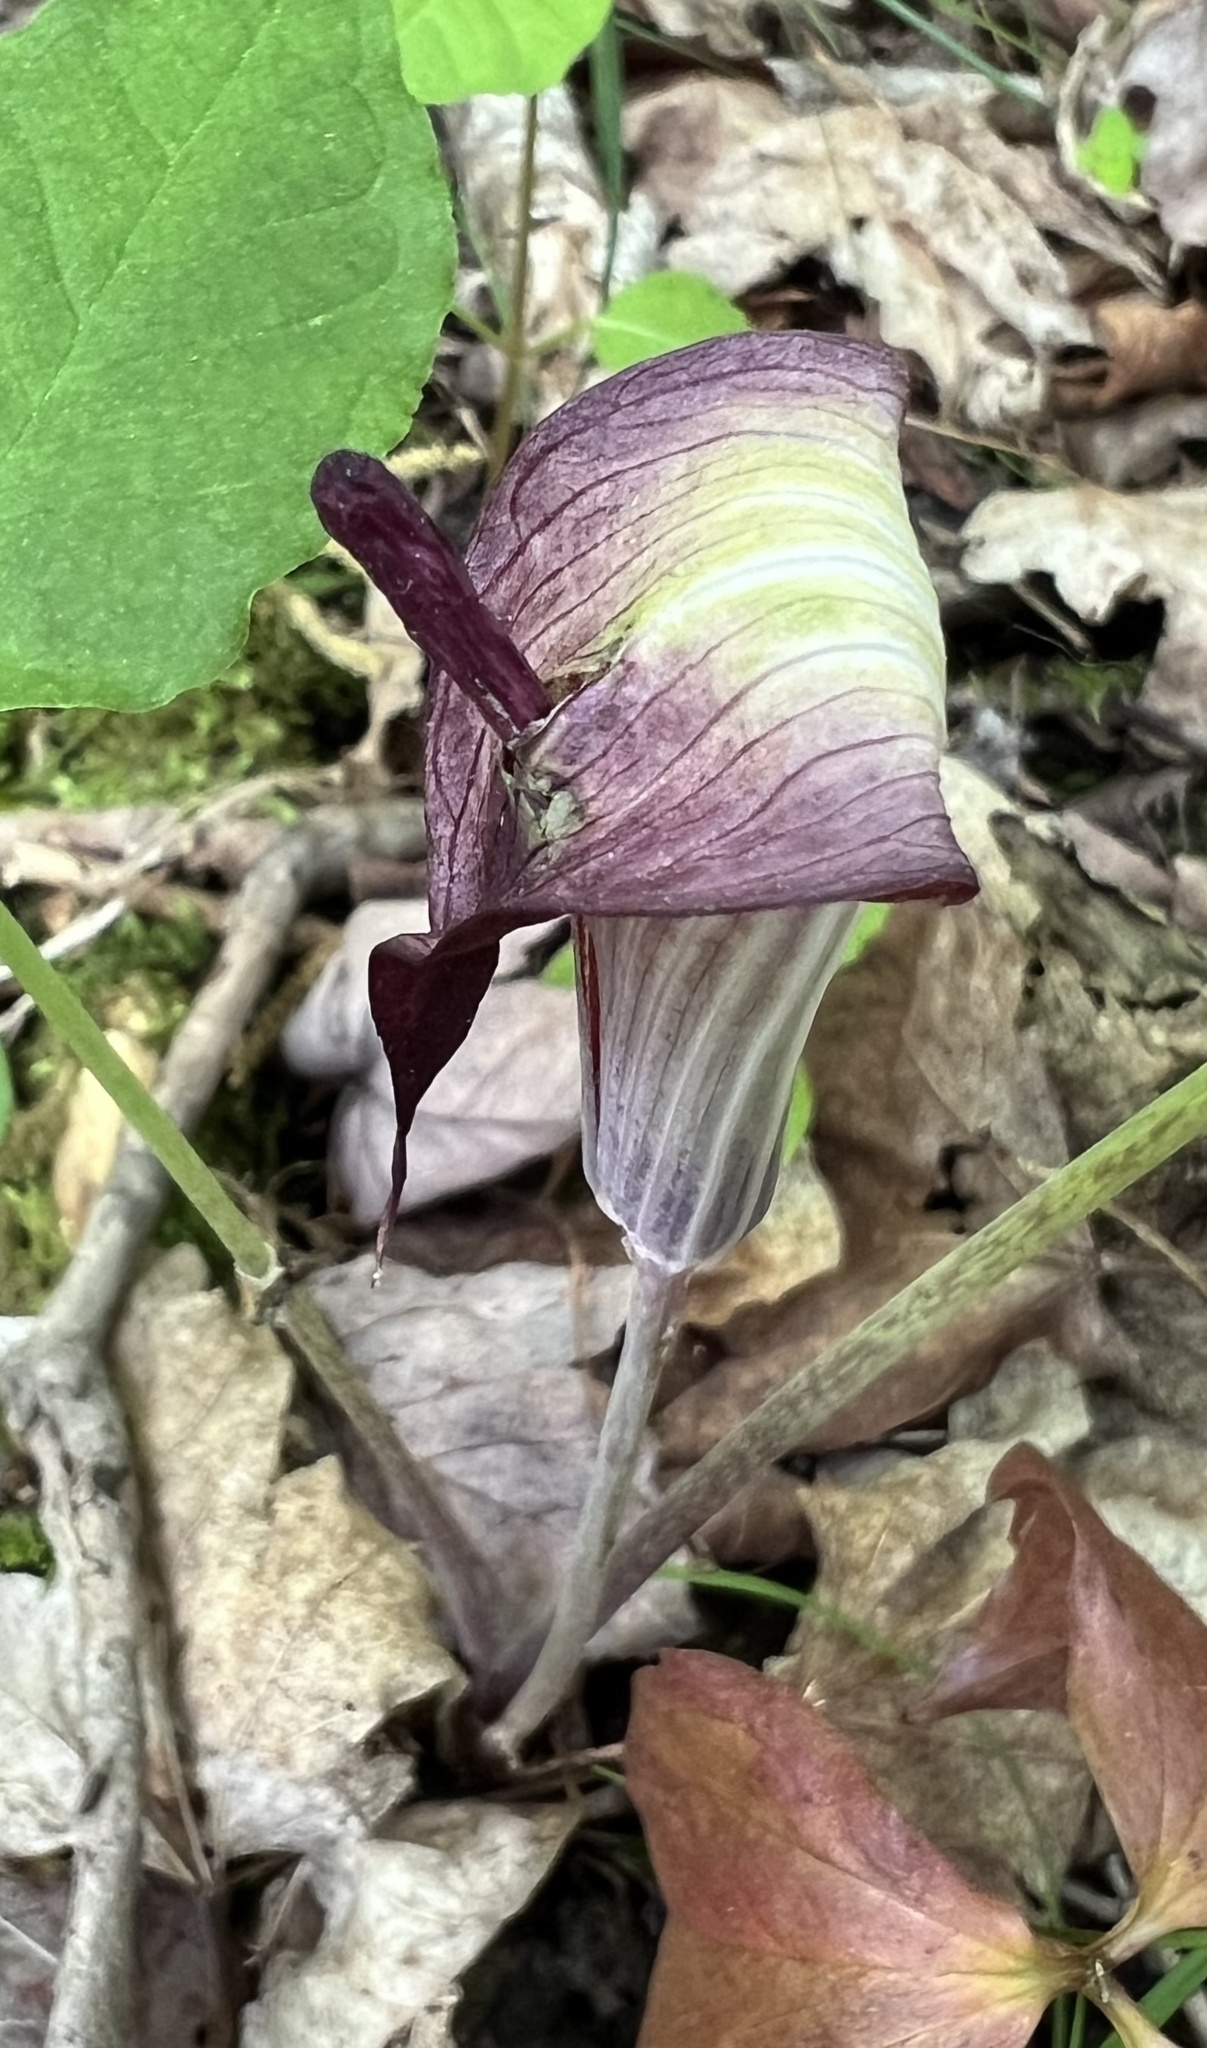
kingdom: Plantae
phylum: Tracheophyta
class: Liliopsida
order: Alismatales
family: Araceae
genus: Arisaema
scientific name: Arisaema triphyllum
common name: Jack-in-the-pulpit
